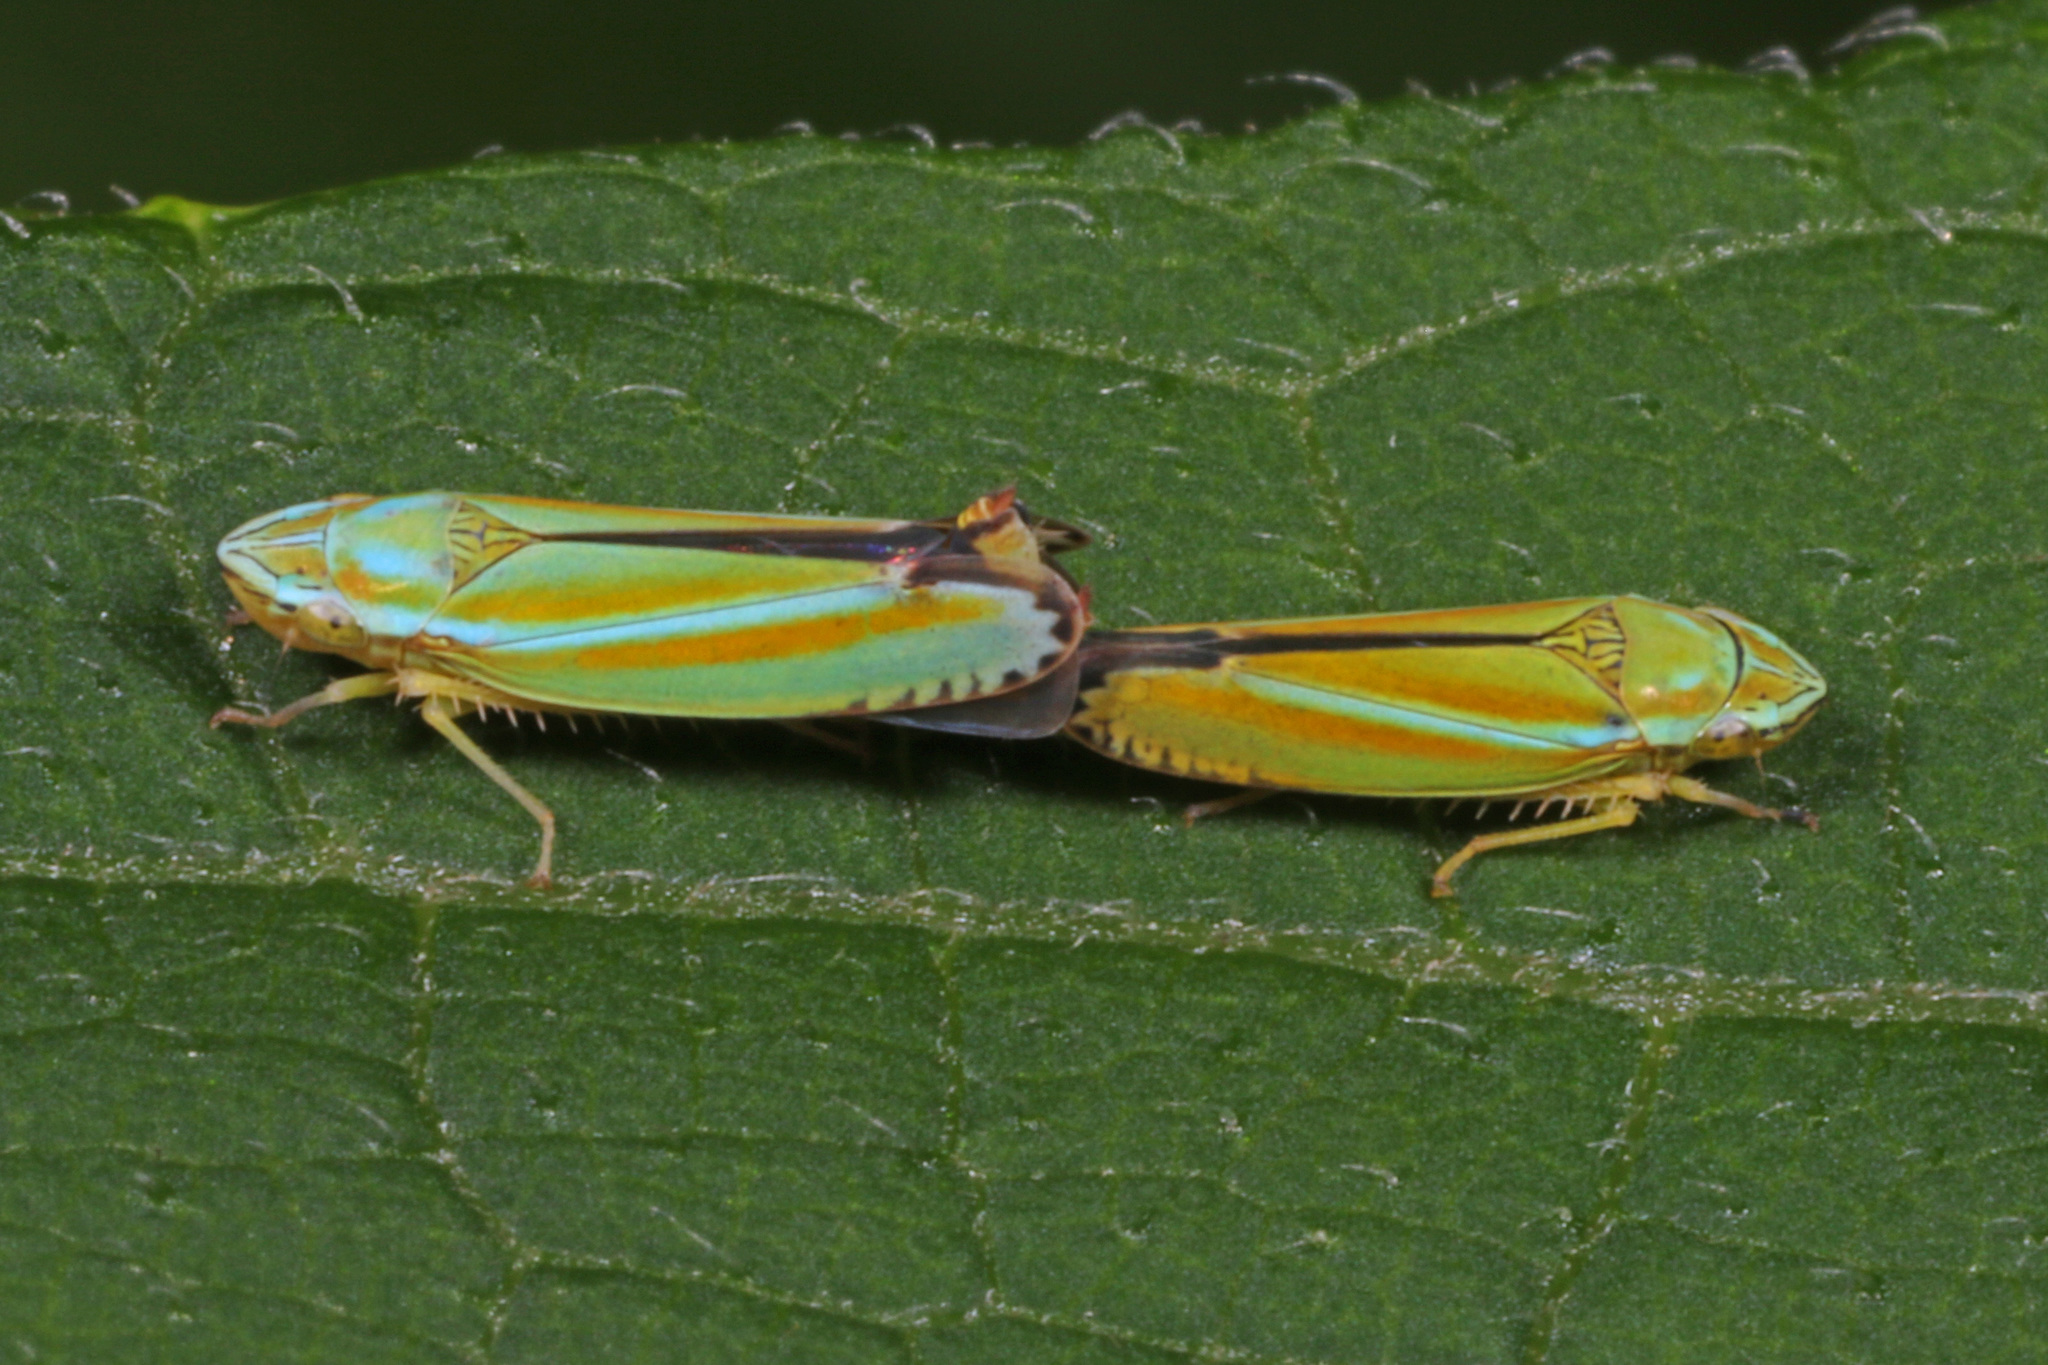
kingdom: Animalia
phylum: Arthropoda
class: Insecta
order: Hemiptera
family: Cicadellidae
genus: Graphocephala
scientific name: Graphocephala versuta
